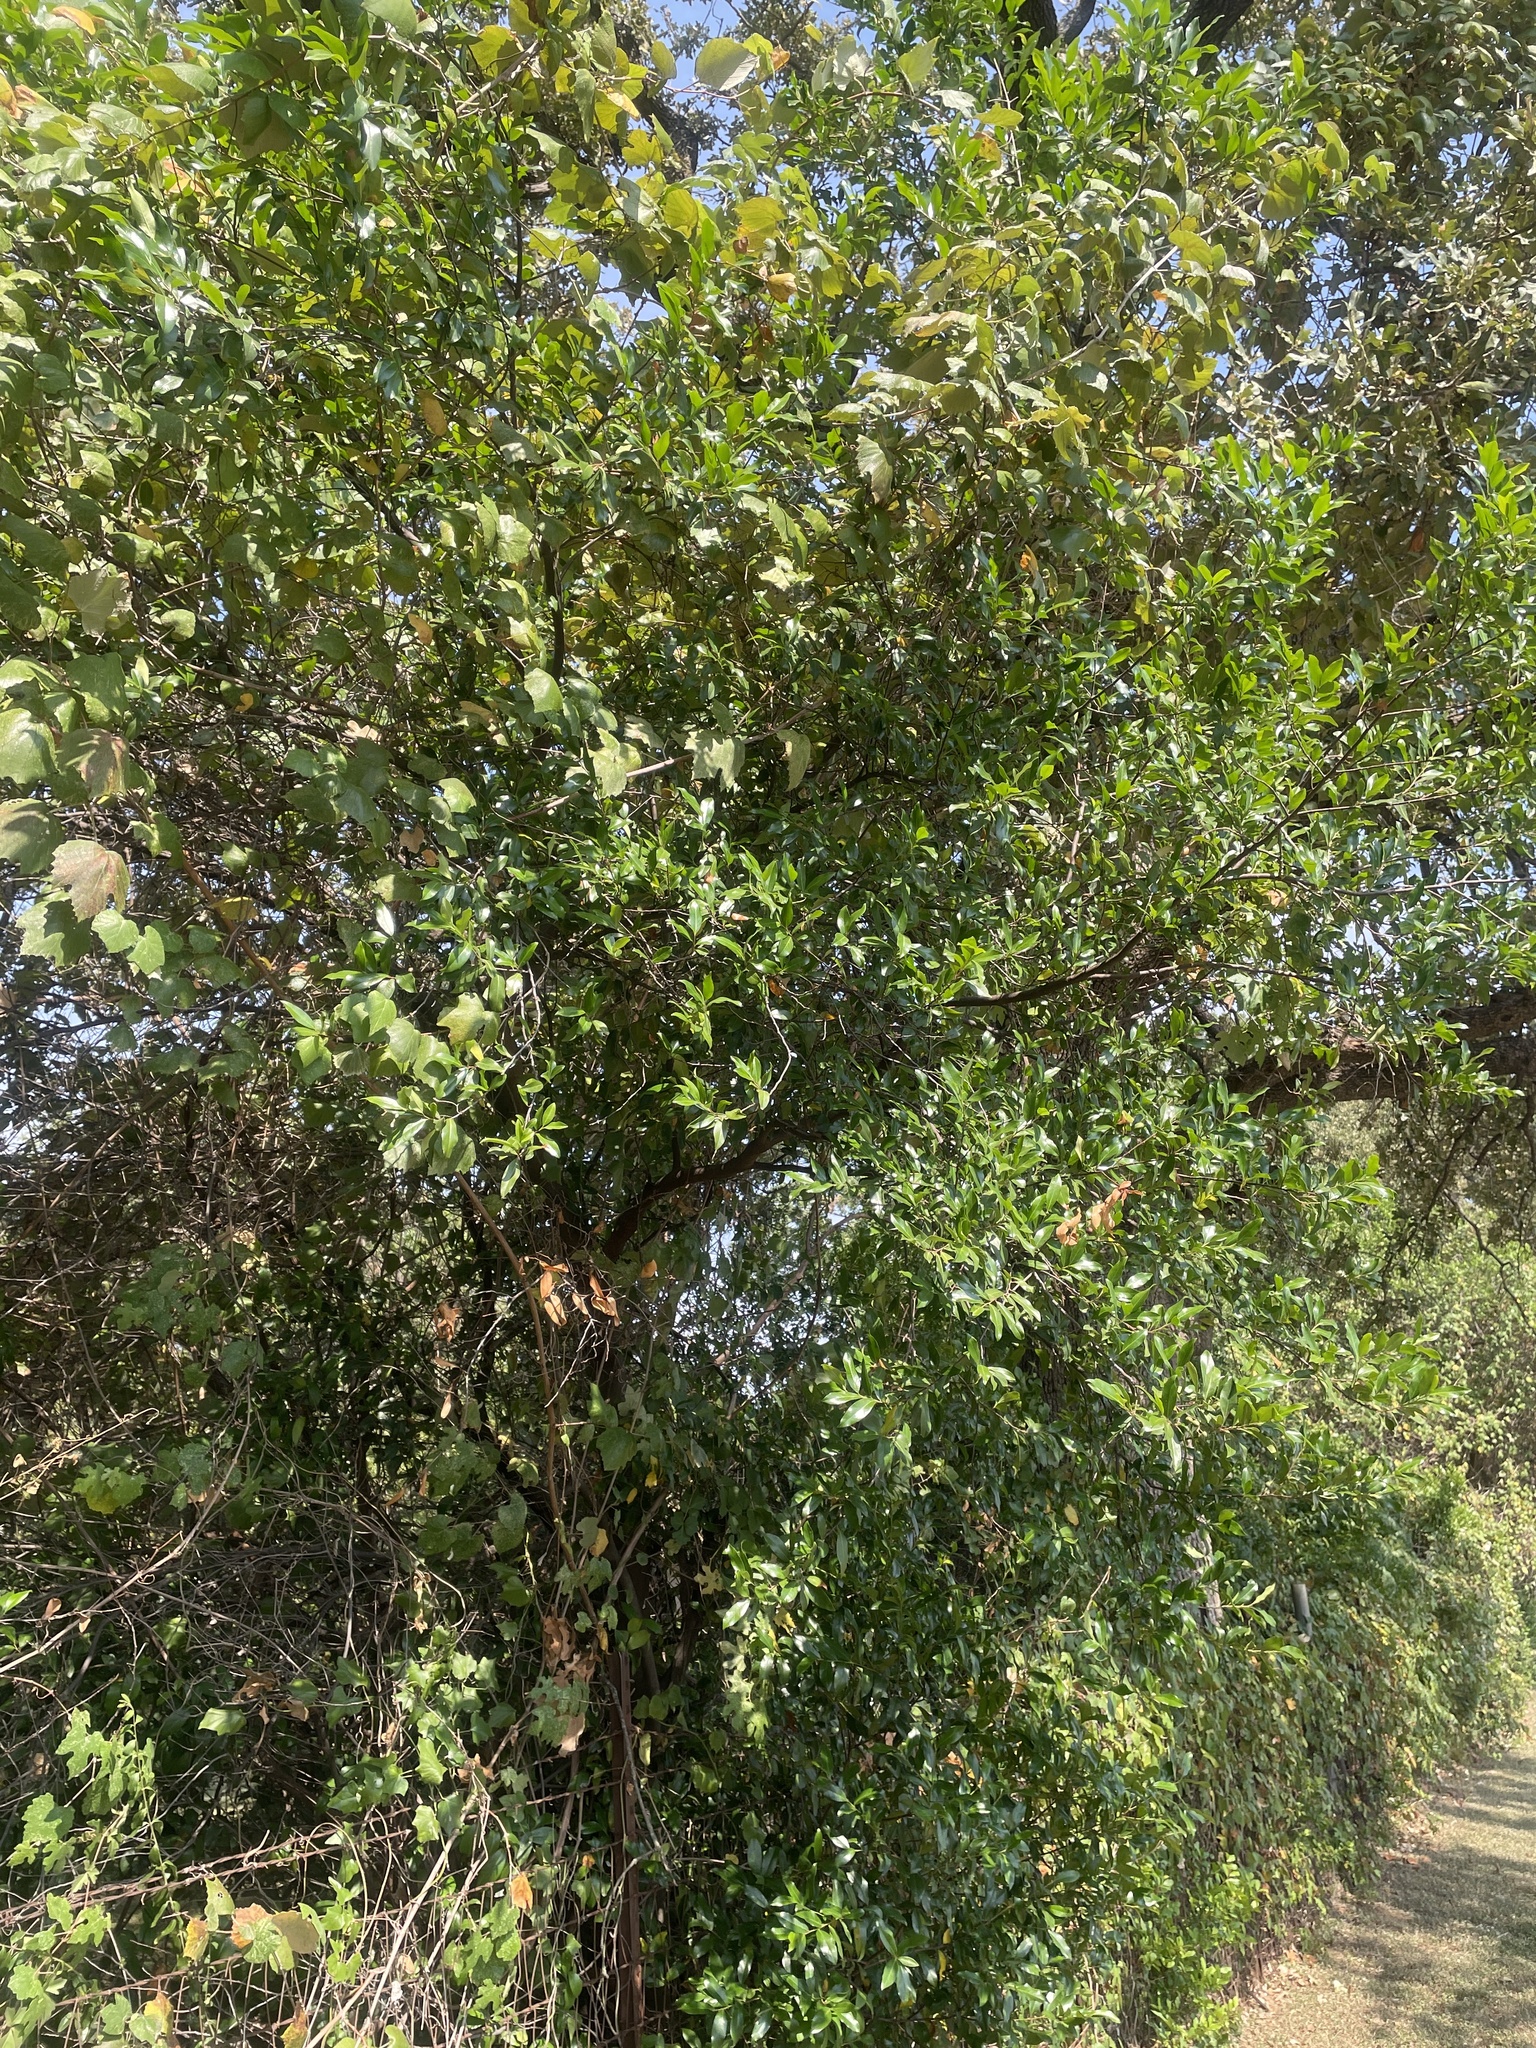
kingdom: Plantae
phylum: Tracheophyta
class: Magnoliopsida
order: Rosales
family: Rosaceae
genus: Prunus
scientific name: Prunus caroliniana
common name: Carolina laurel cherry
